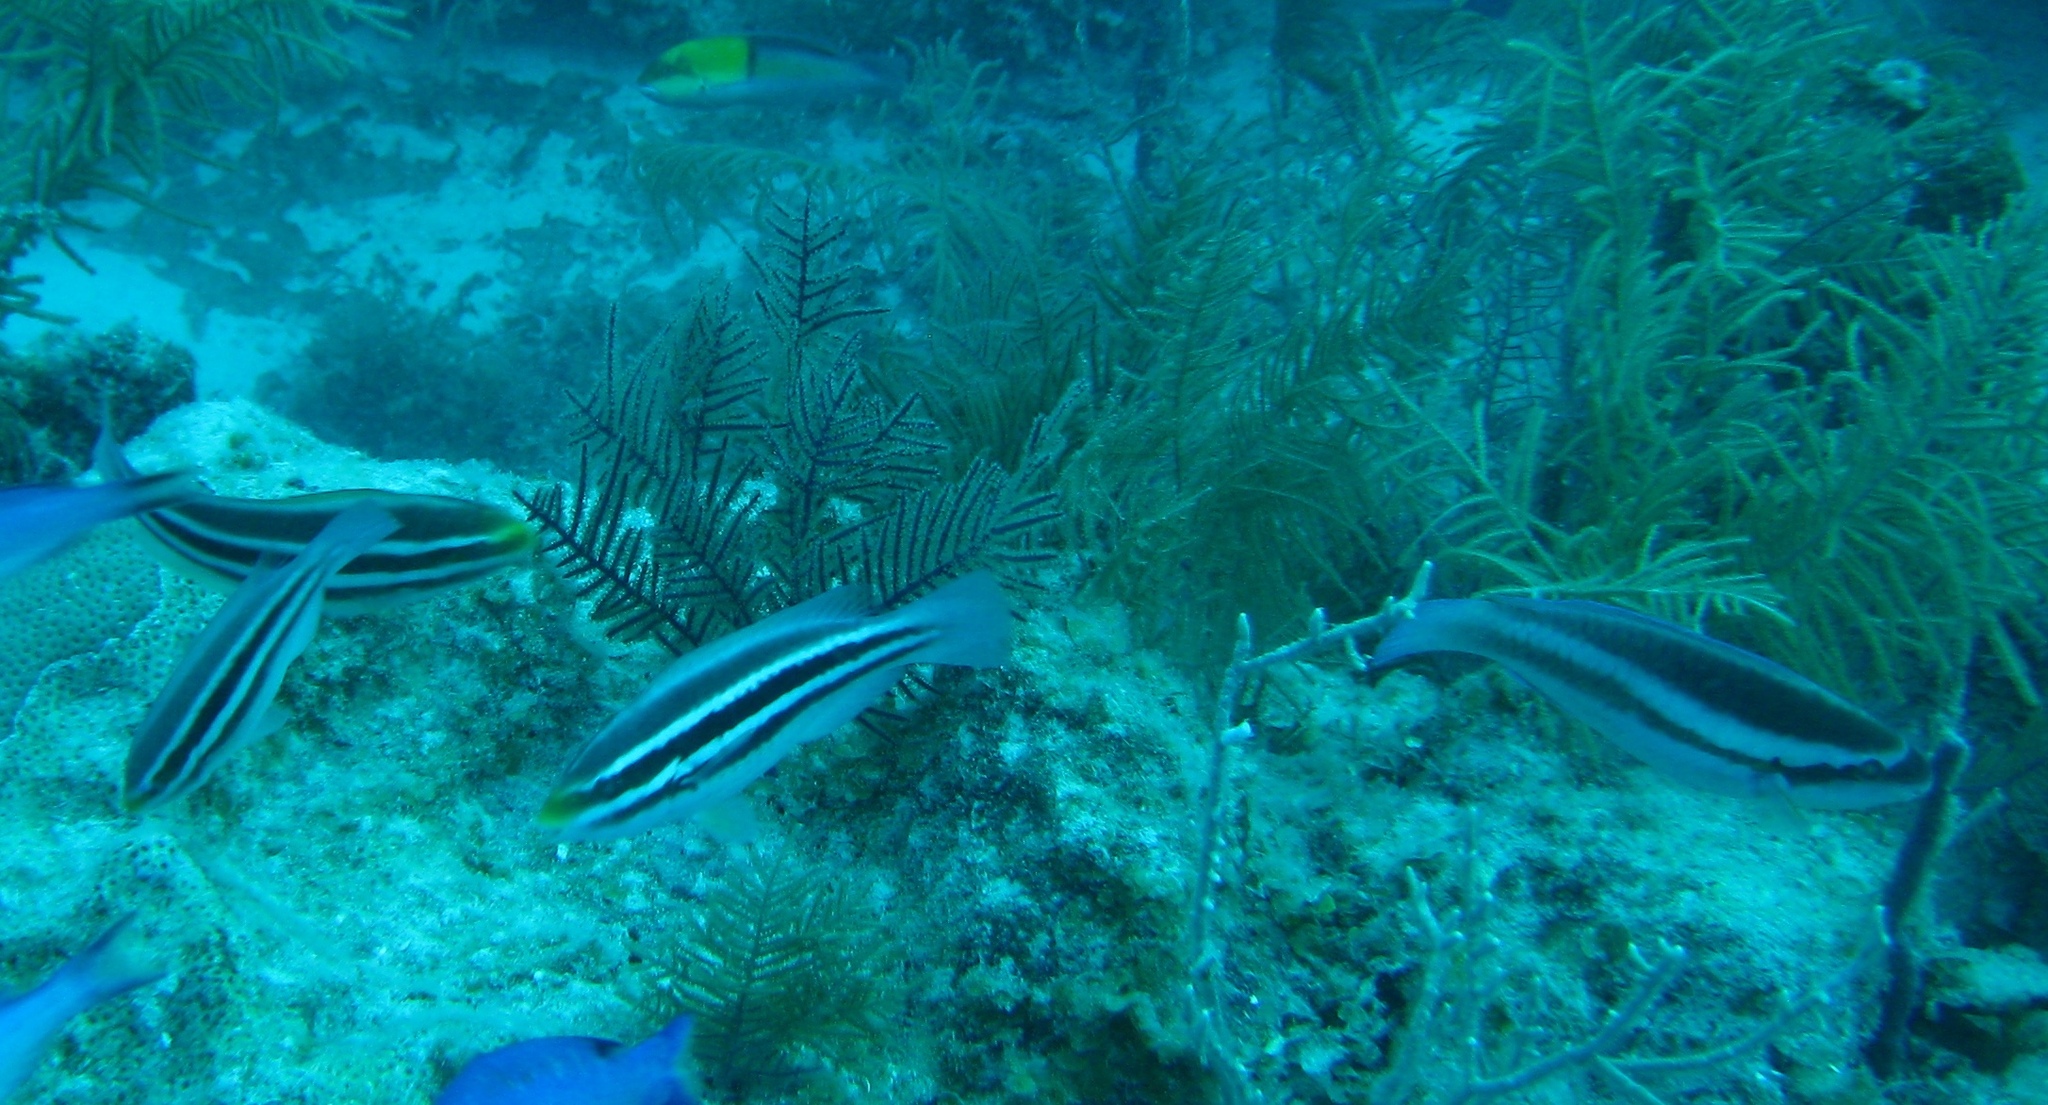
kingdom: Animalia
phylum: Chordata
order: Perciformes
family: Scaridae
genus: Scarus
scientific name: Scarus iseri
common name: Striped parrotfish
